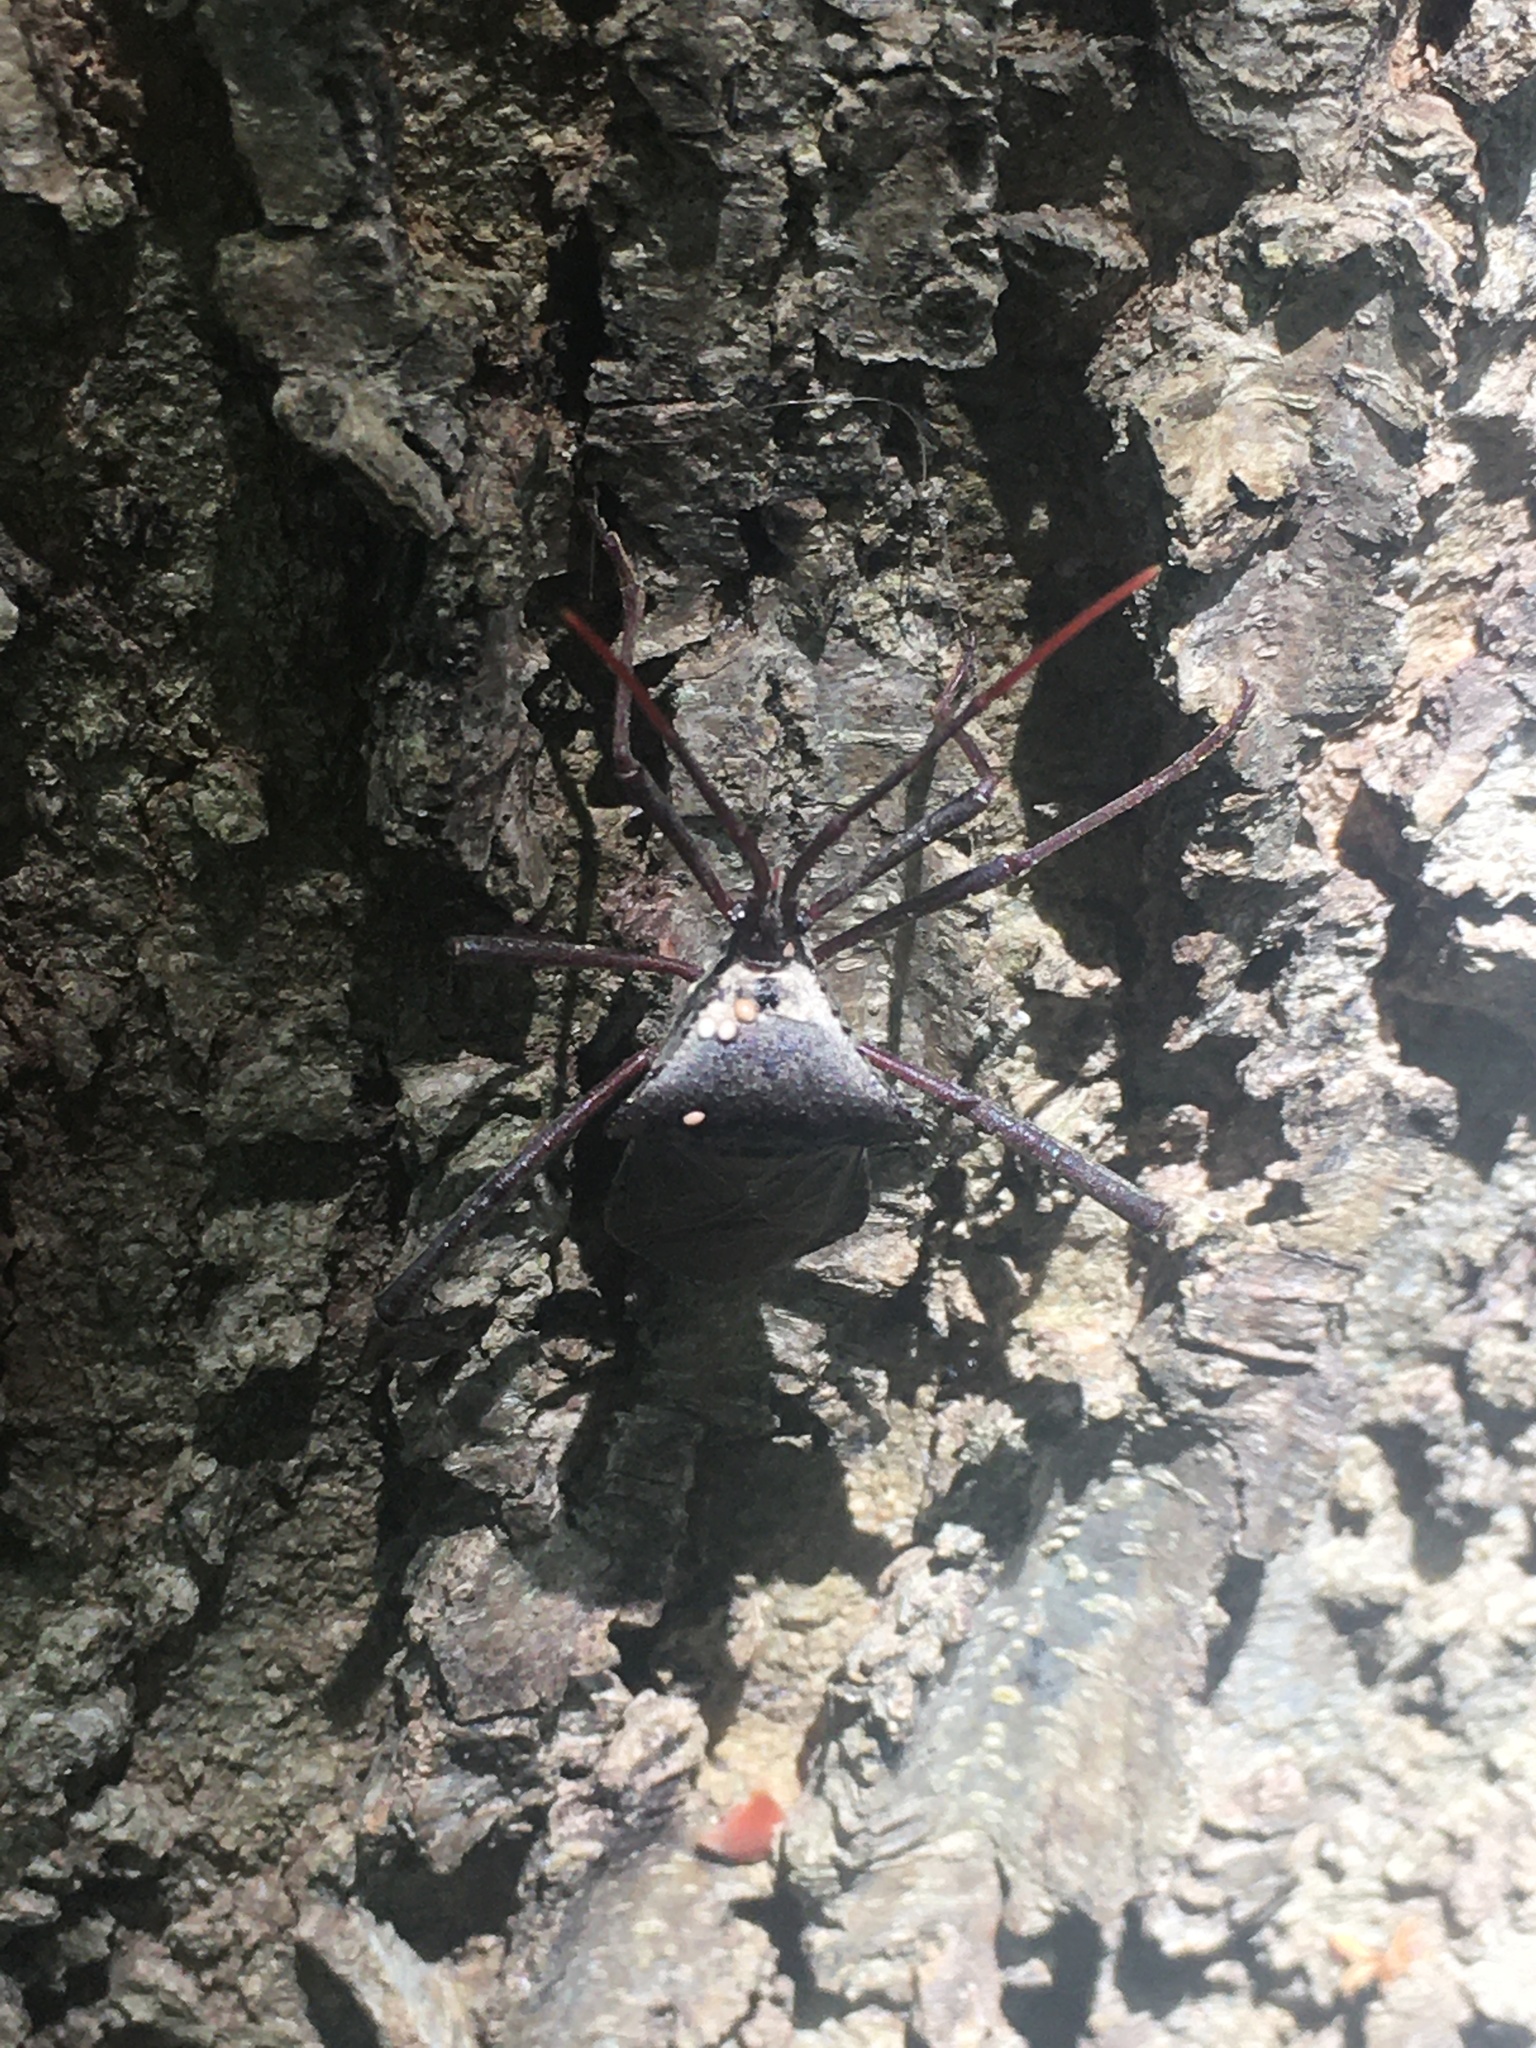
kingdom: Animalia
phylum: Arthropoda
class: Insecta
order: Hemiptera
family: Coreidae
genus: Acanthocephala
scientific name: Acanthocephala declivis
